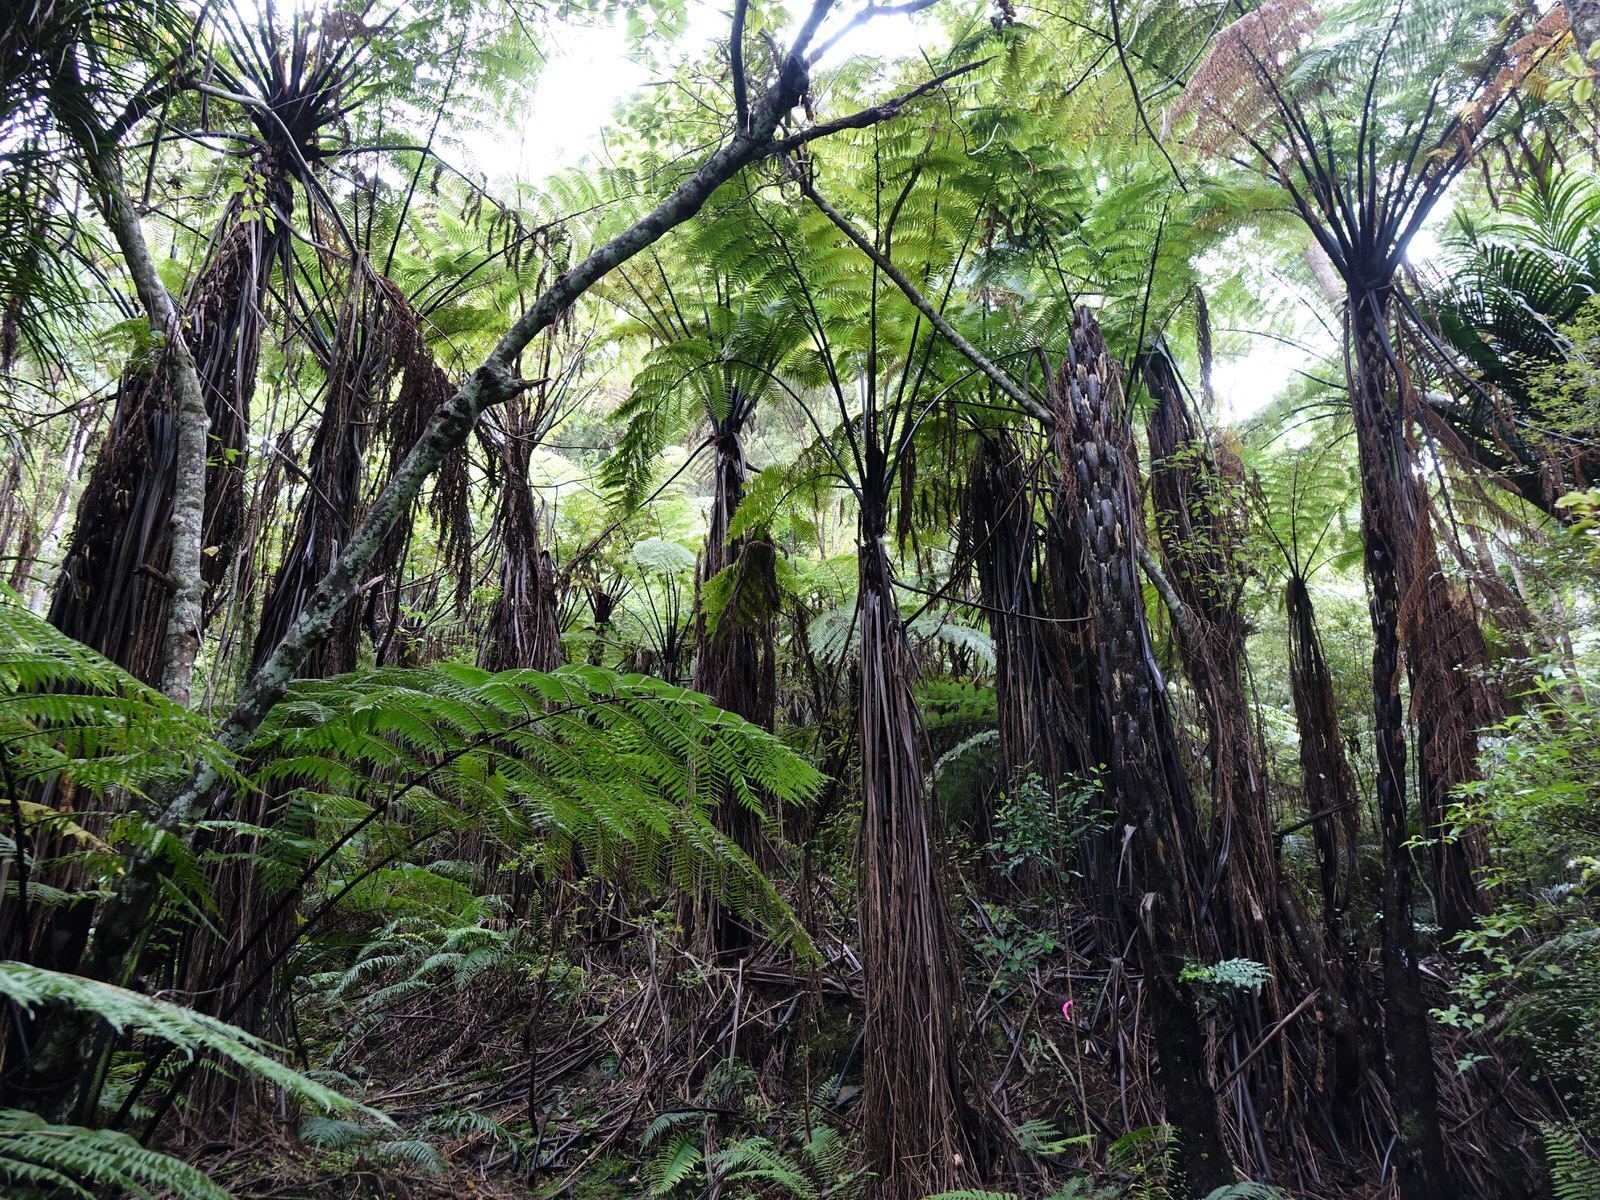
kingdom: Plantae
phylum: Tracheophyta
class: Polypodiopsida
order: Cyatheales
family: Cyatheaceae
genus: Sphaeropteris
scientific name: Sphaeropteris medullaris
